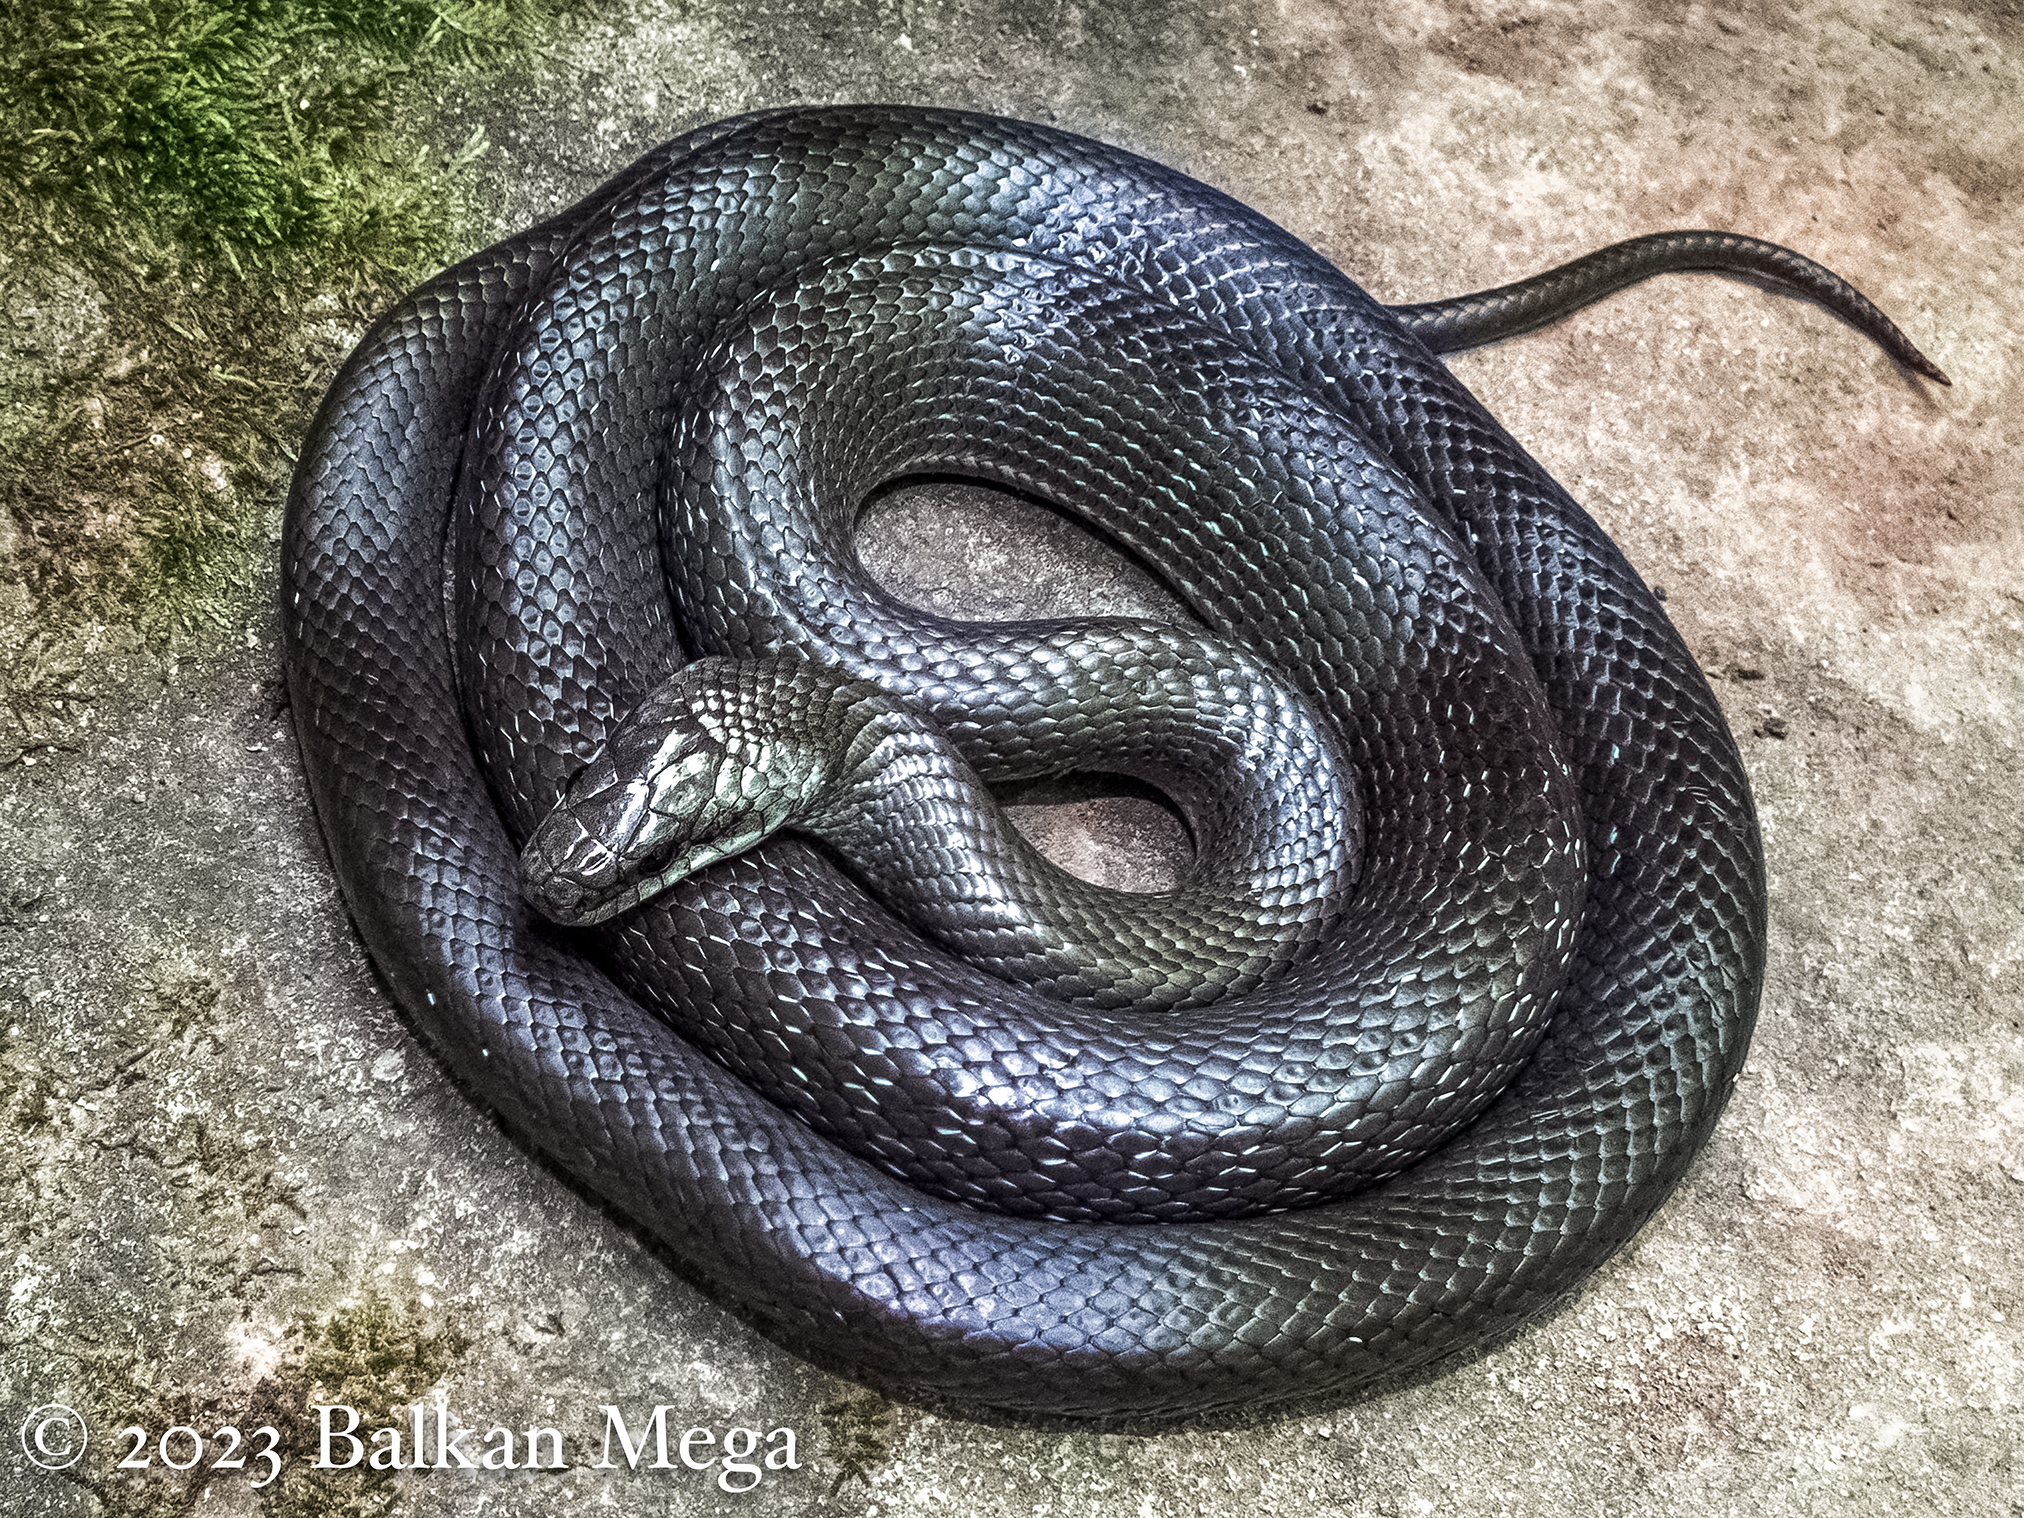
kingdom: Animalia
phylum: Chordata
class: Squamata
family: Colubridae
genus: Zamenis
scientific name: Zamenis longissimus
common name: Aesculapean snake
